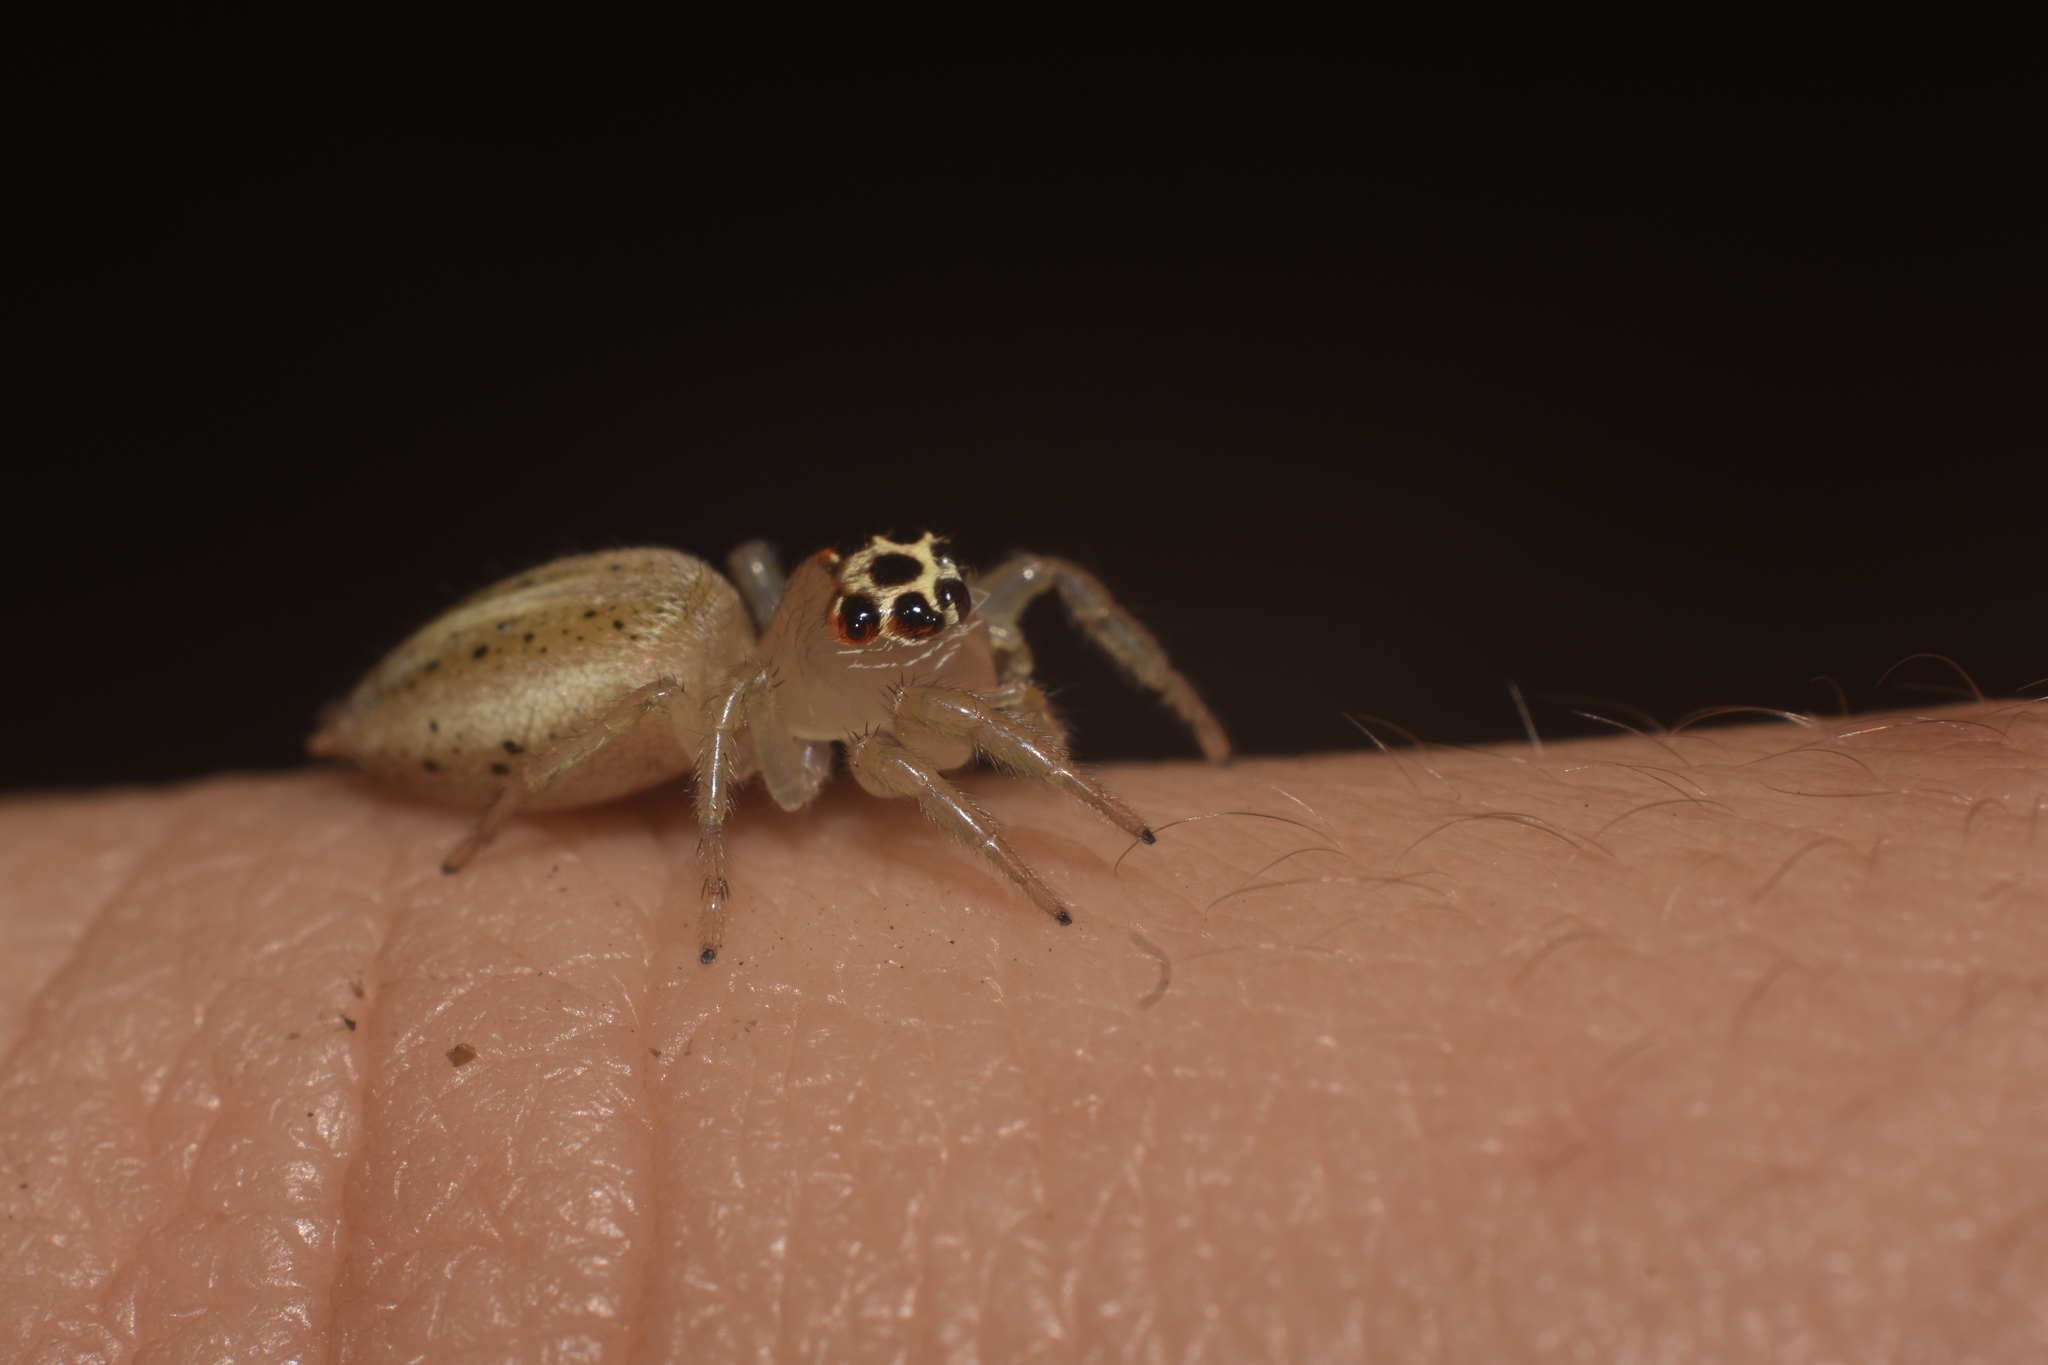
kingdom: Animalia
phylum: Arthropoda
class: Arachnida
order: Araneae
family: Salticidae
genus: Colonus
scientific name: Colonus sylvanus
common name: Jumping spiders
